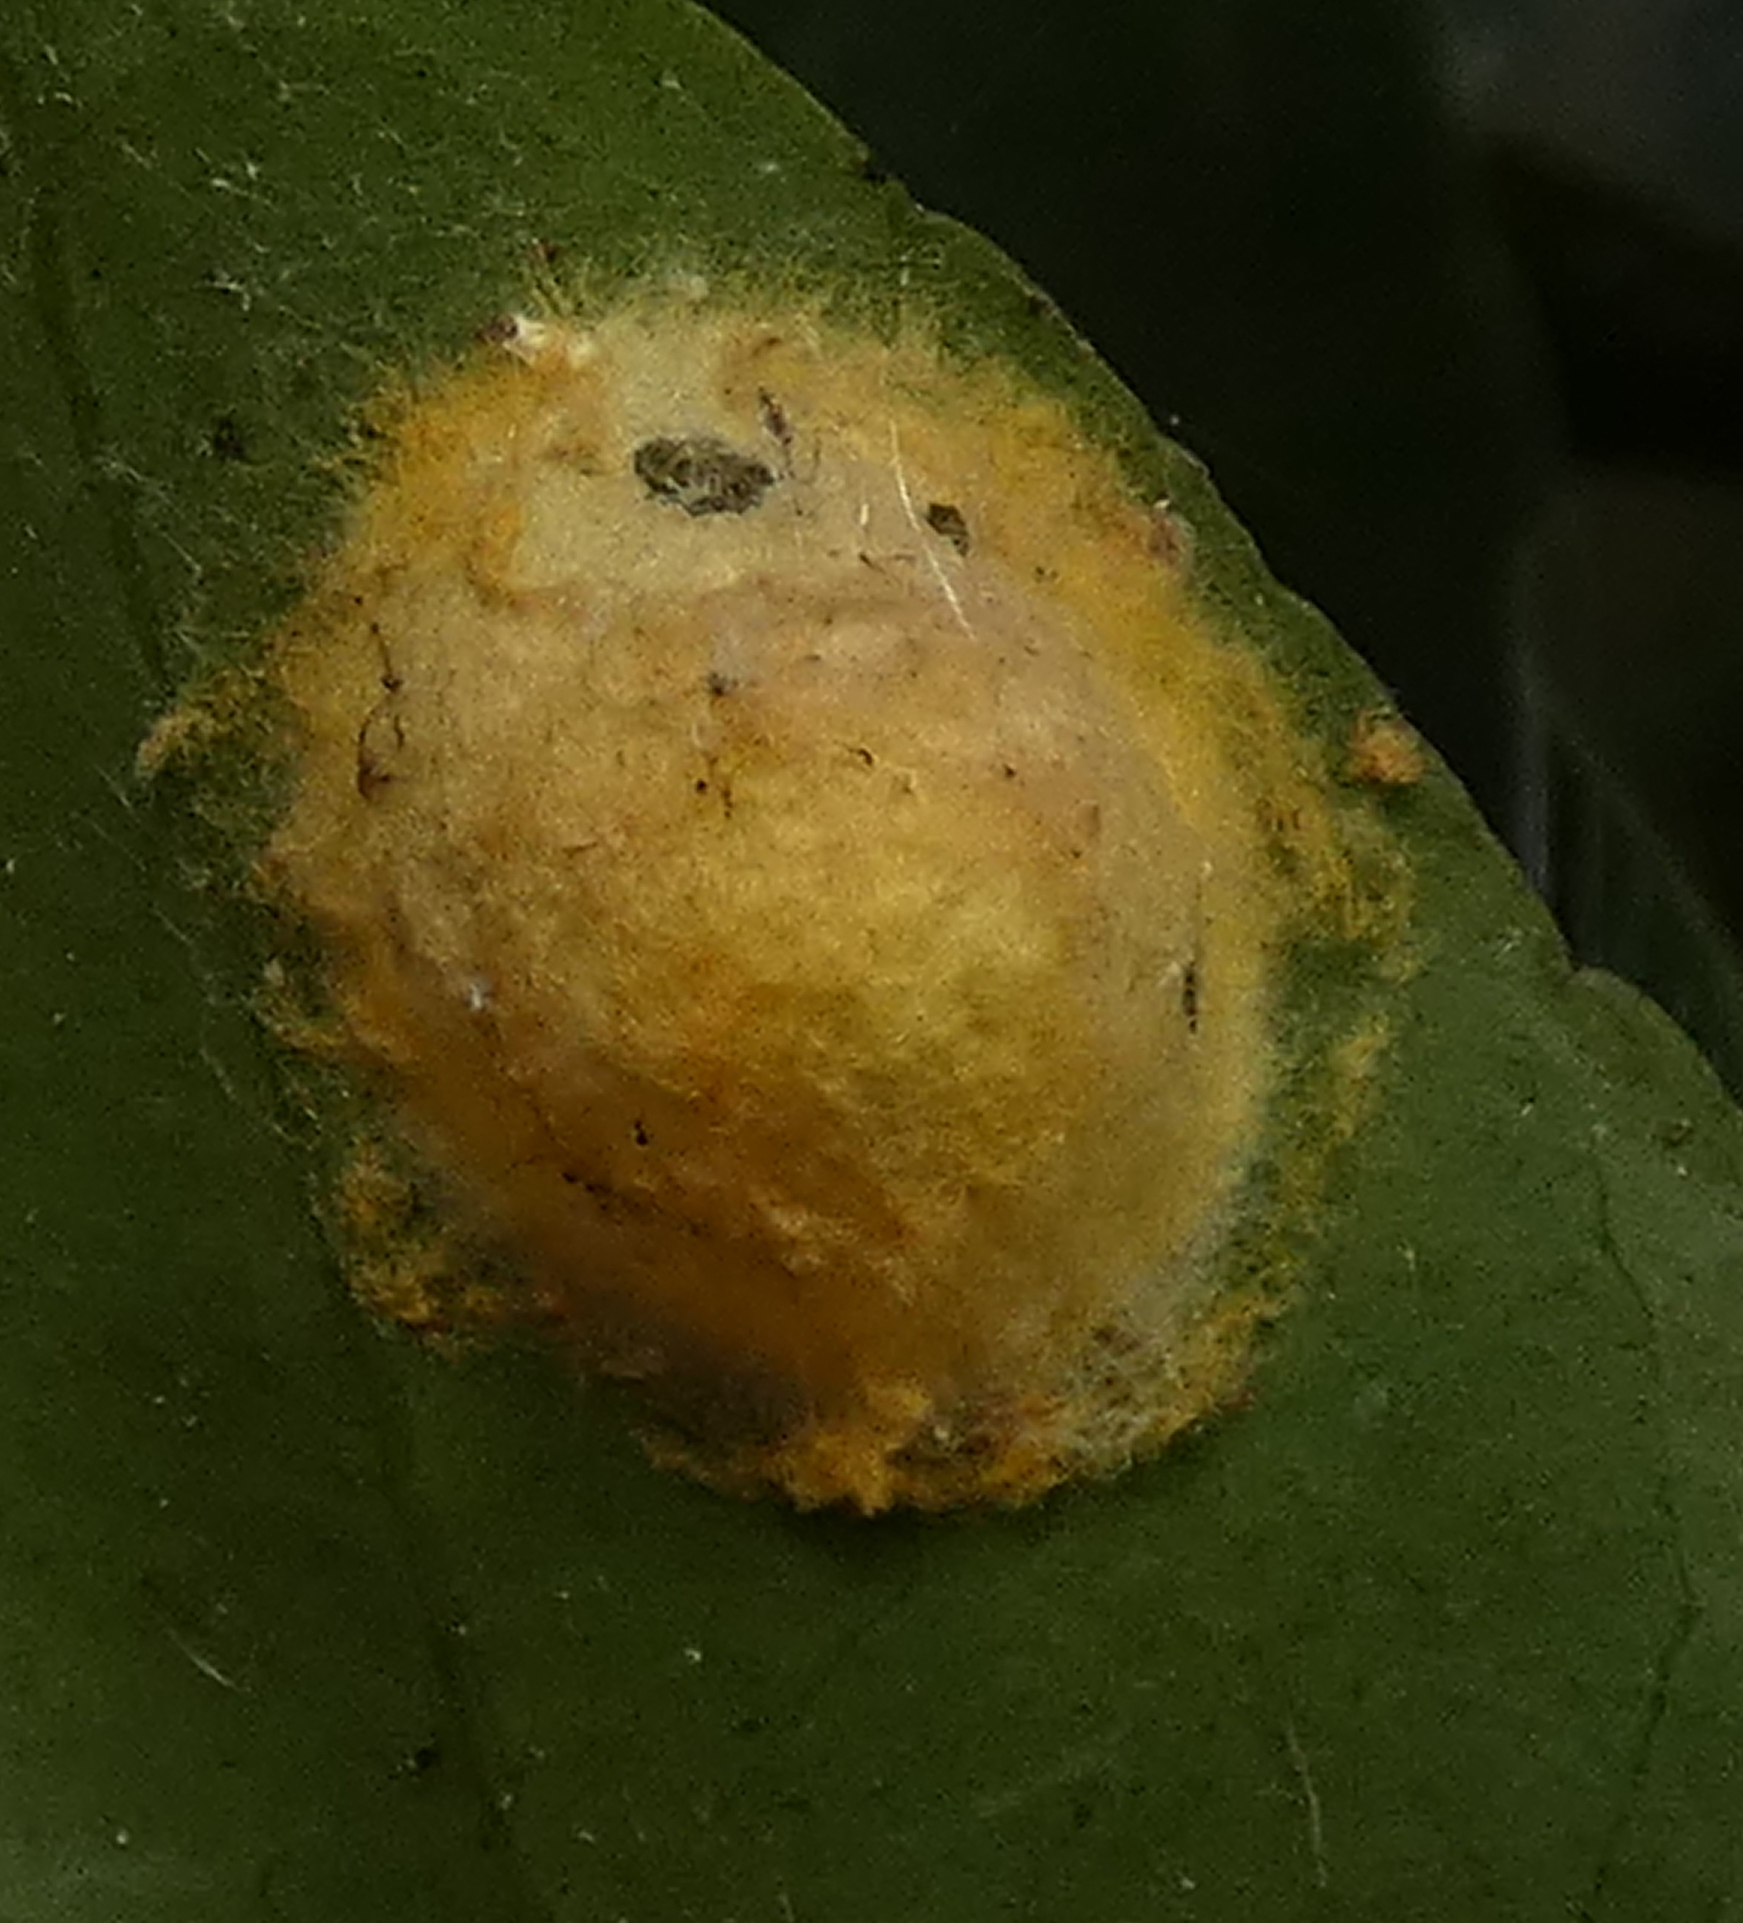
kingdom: Animalia
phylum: Arthropoda
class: Arachnida
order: Araneae
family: Araneidae
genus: Alpaida
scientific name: Alpaida bicornuta
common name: Orb weavers
